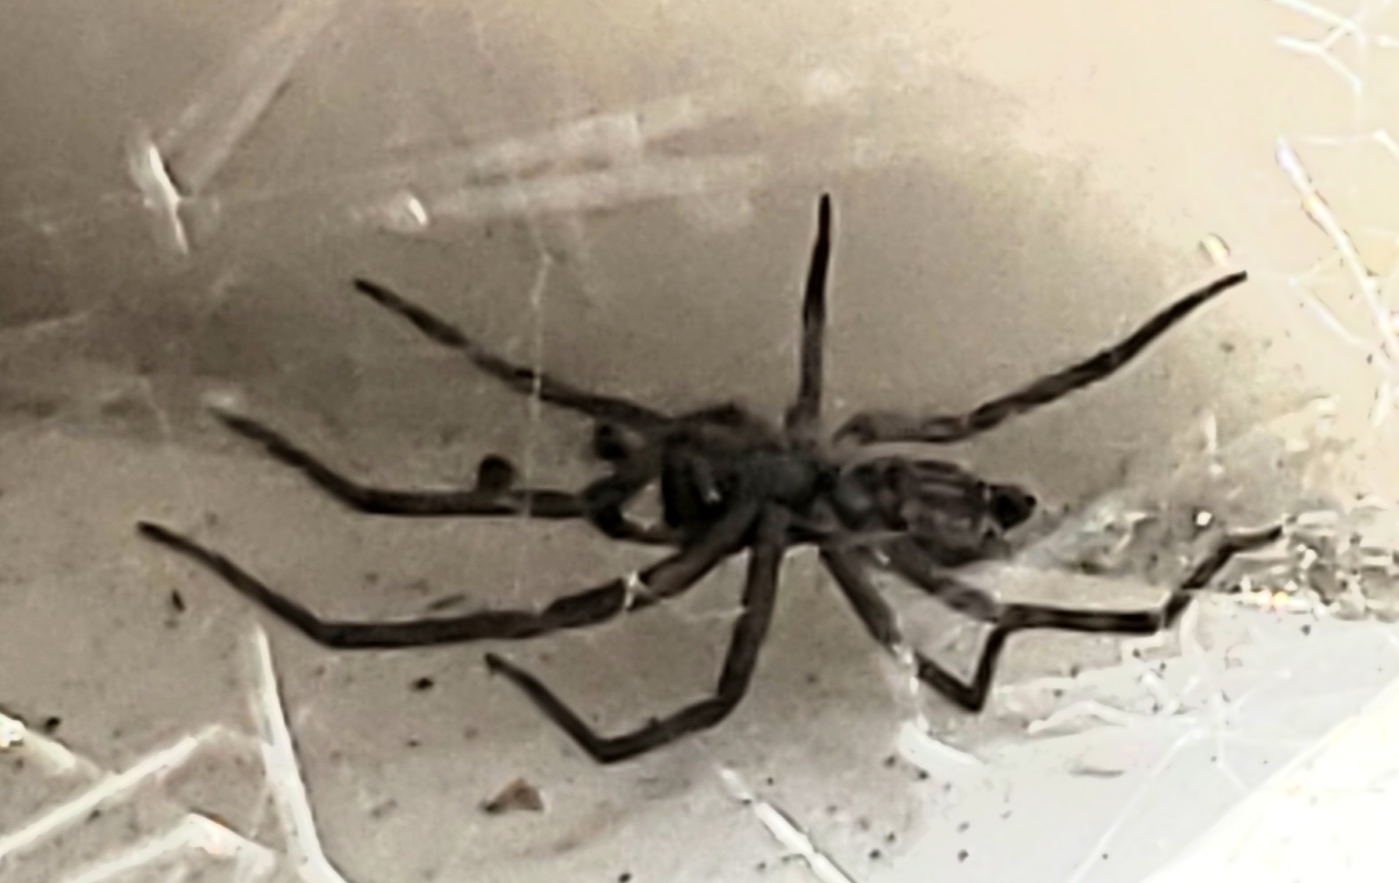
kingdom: Animalia
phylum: Arthropoda
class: Arachnida
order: Araneae
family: Desidae
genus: Badumna
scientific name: Badumna longinqua
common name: Gray house spider
